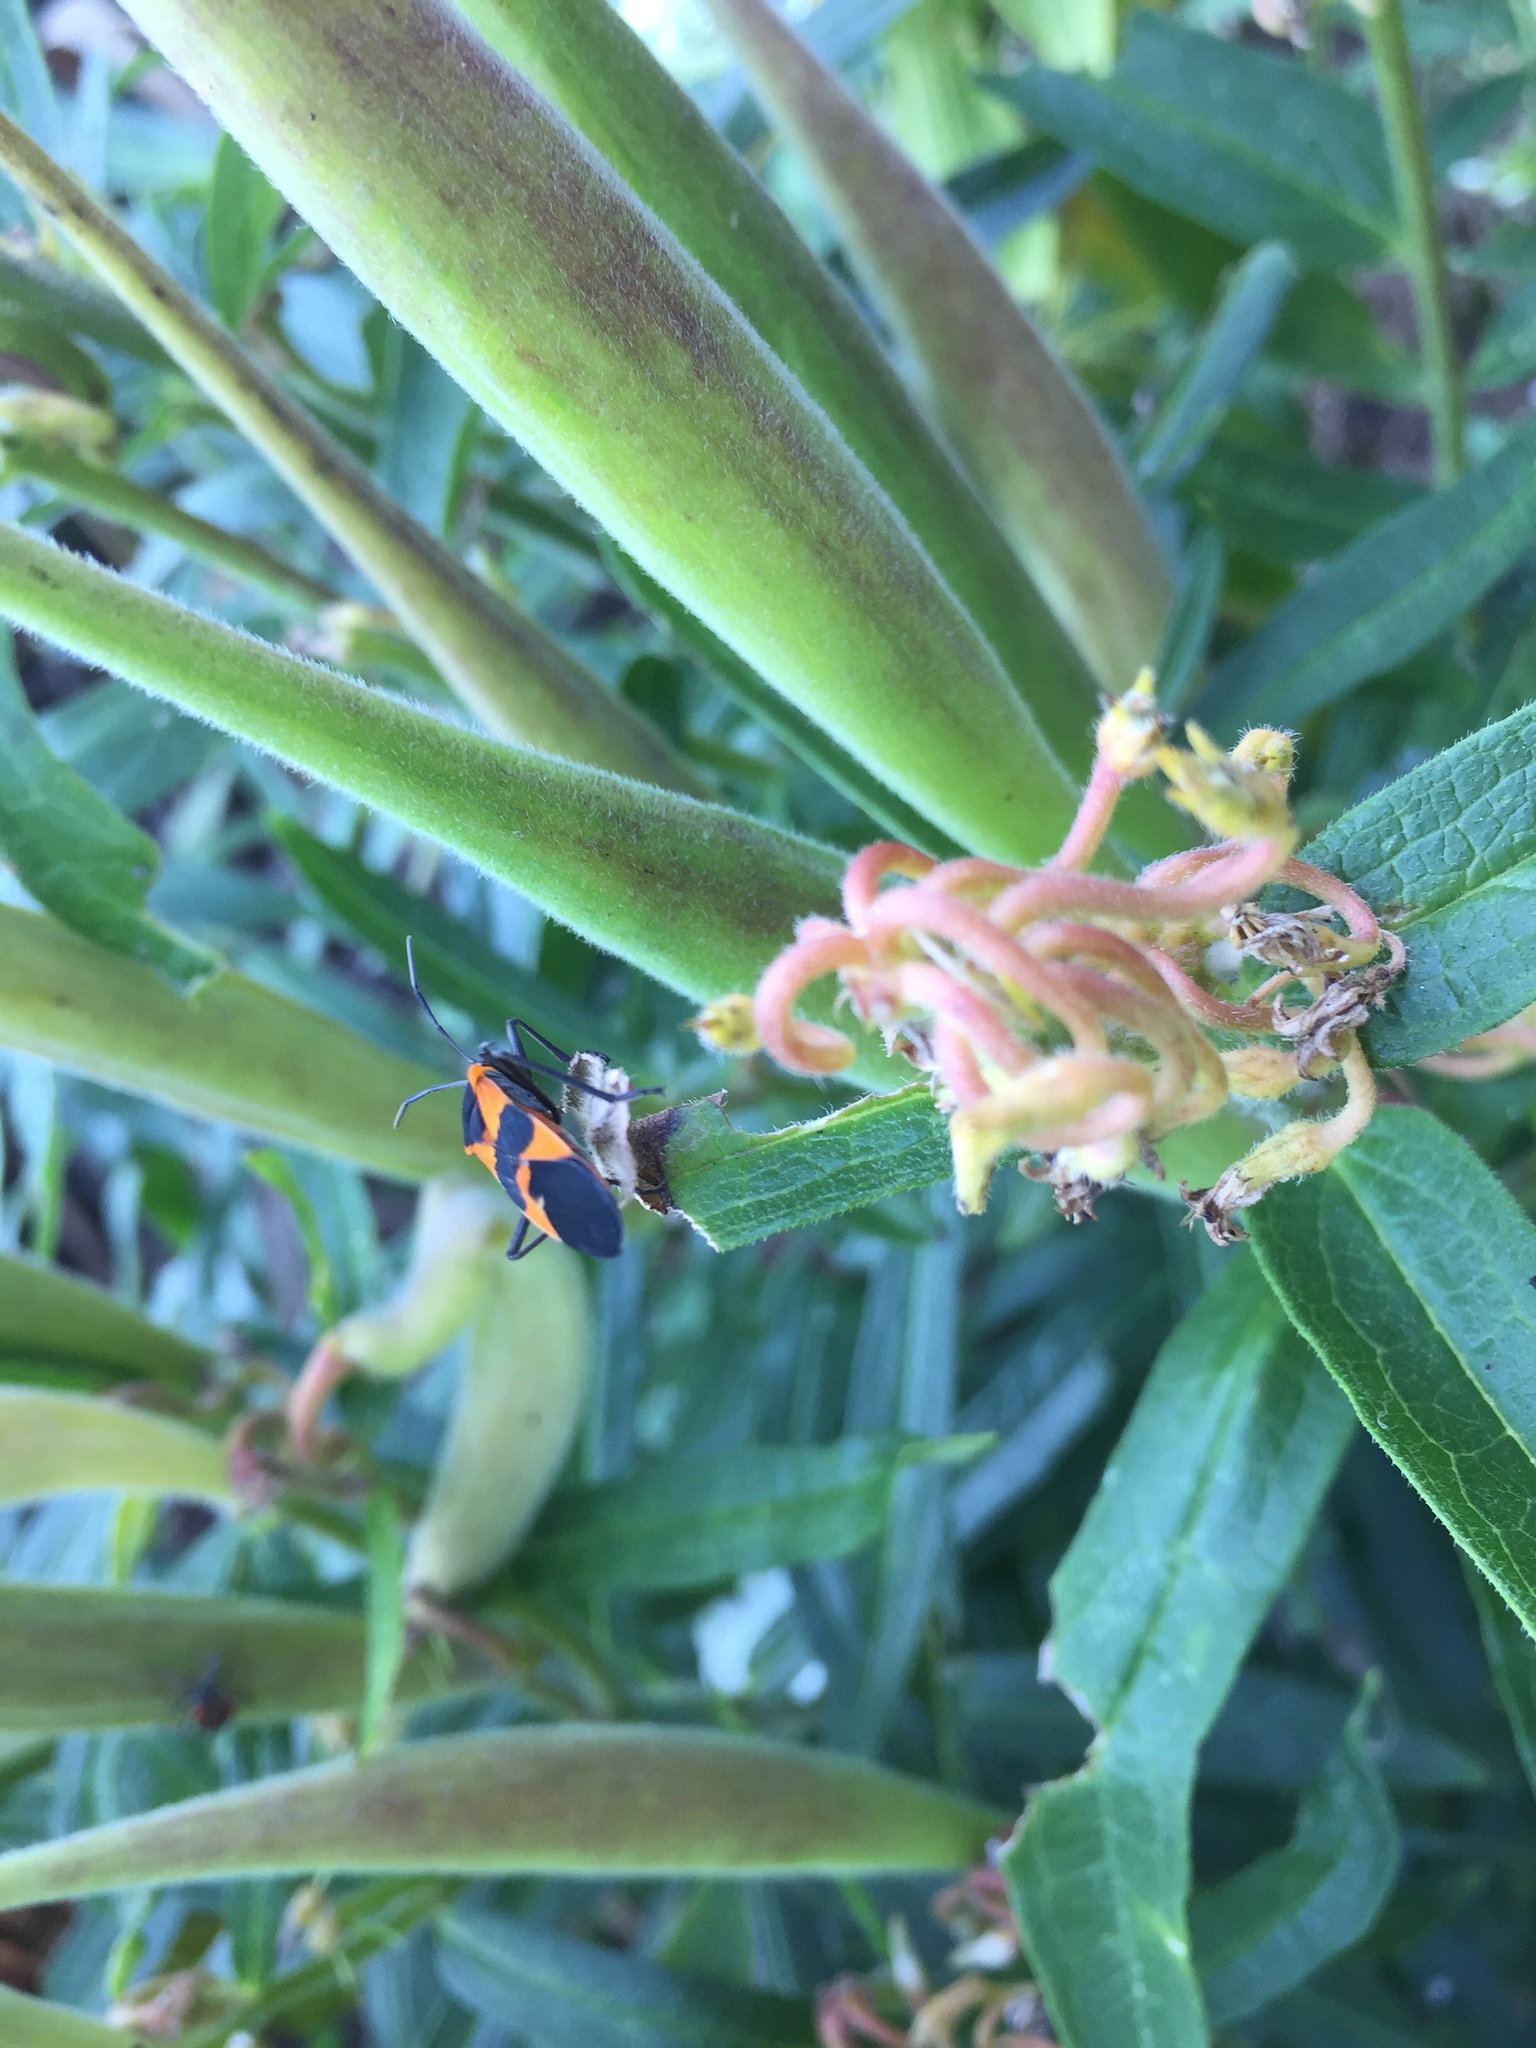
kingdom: Animalia
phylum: Arthropoda
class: Insecta
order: Hemiptera
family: Lygaeidae
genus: Oncopeltus
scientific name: Oncopeltus fasciatus
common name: Large milkweed bug
